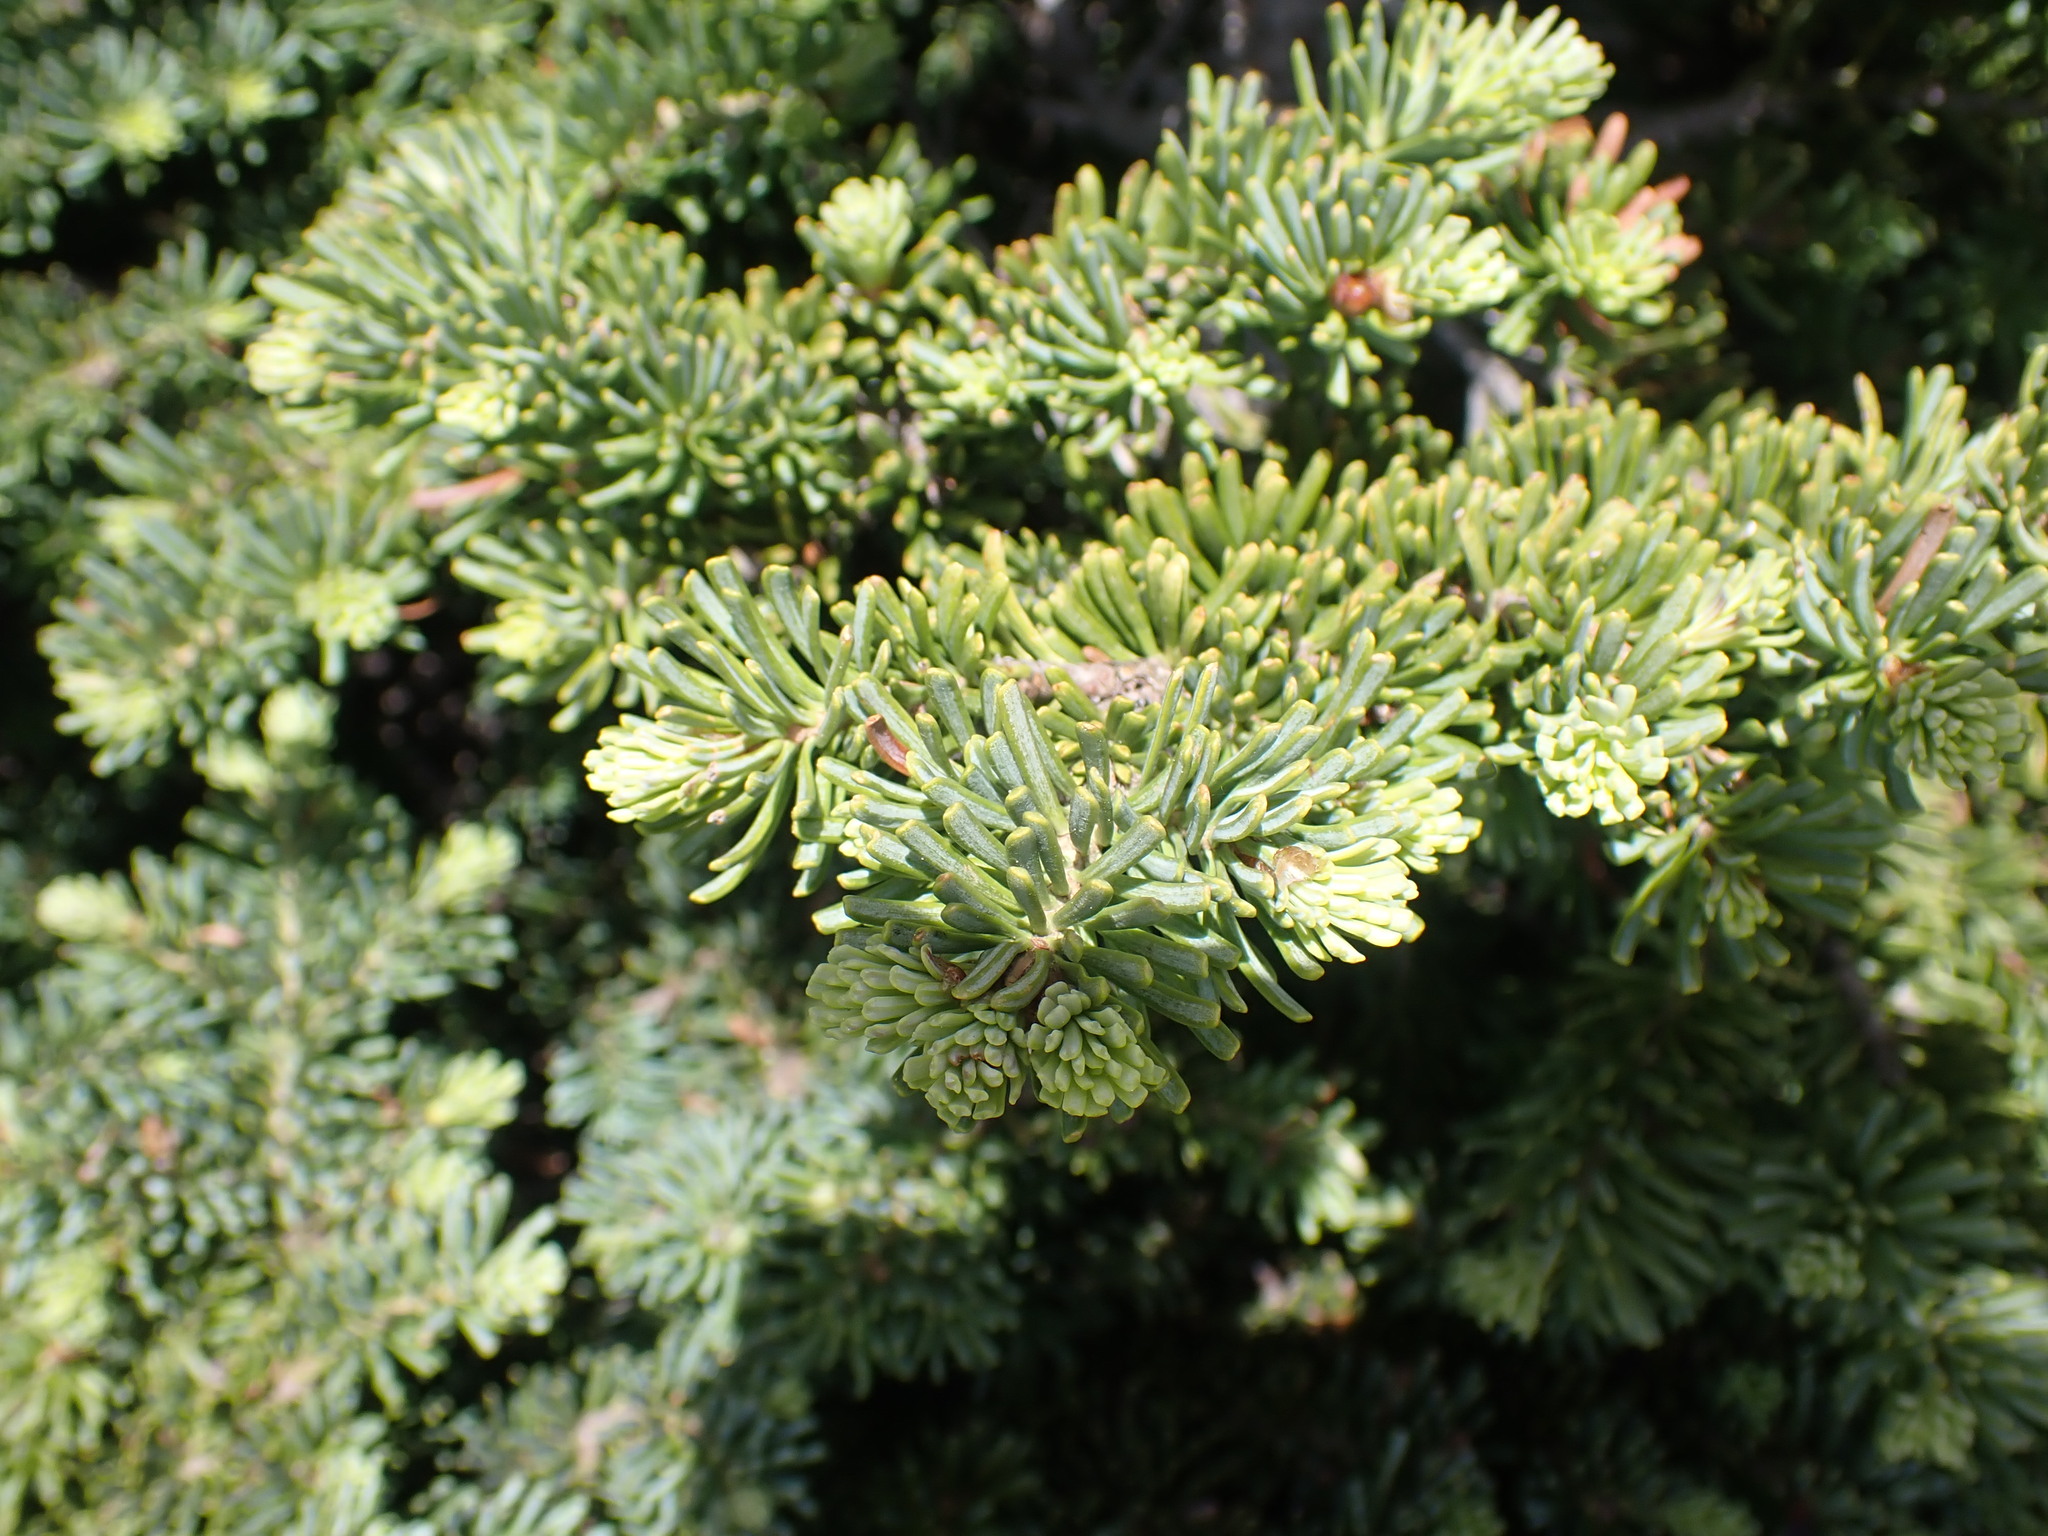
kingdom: Plantae
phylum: Tracheophyta
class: Pinopsida
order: Pinales
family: Pinaceae
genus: Abies
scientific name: Abies lasiocarpa
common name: Subalpine fir
